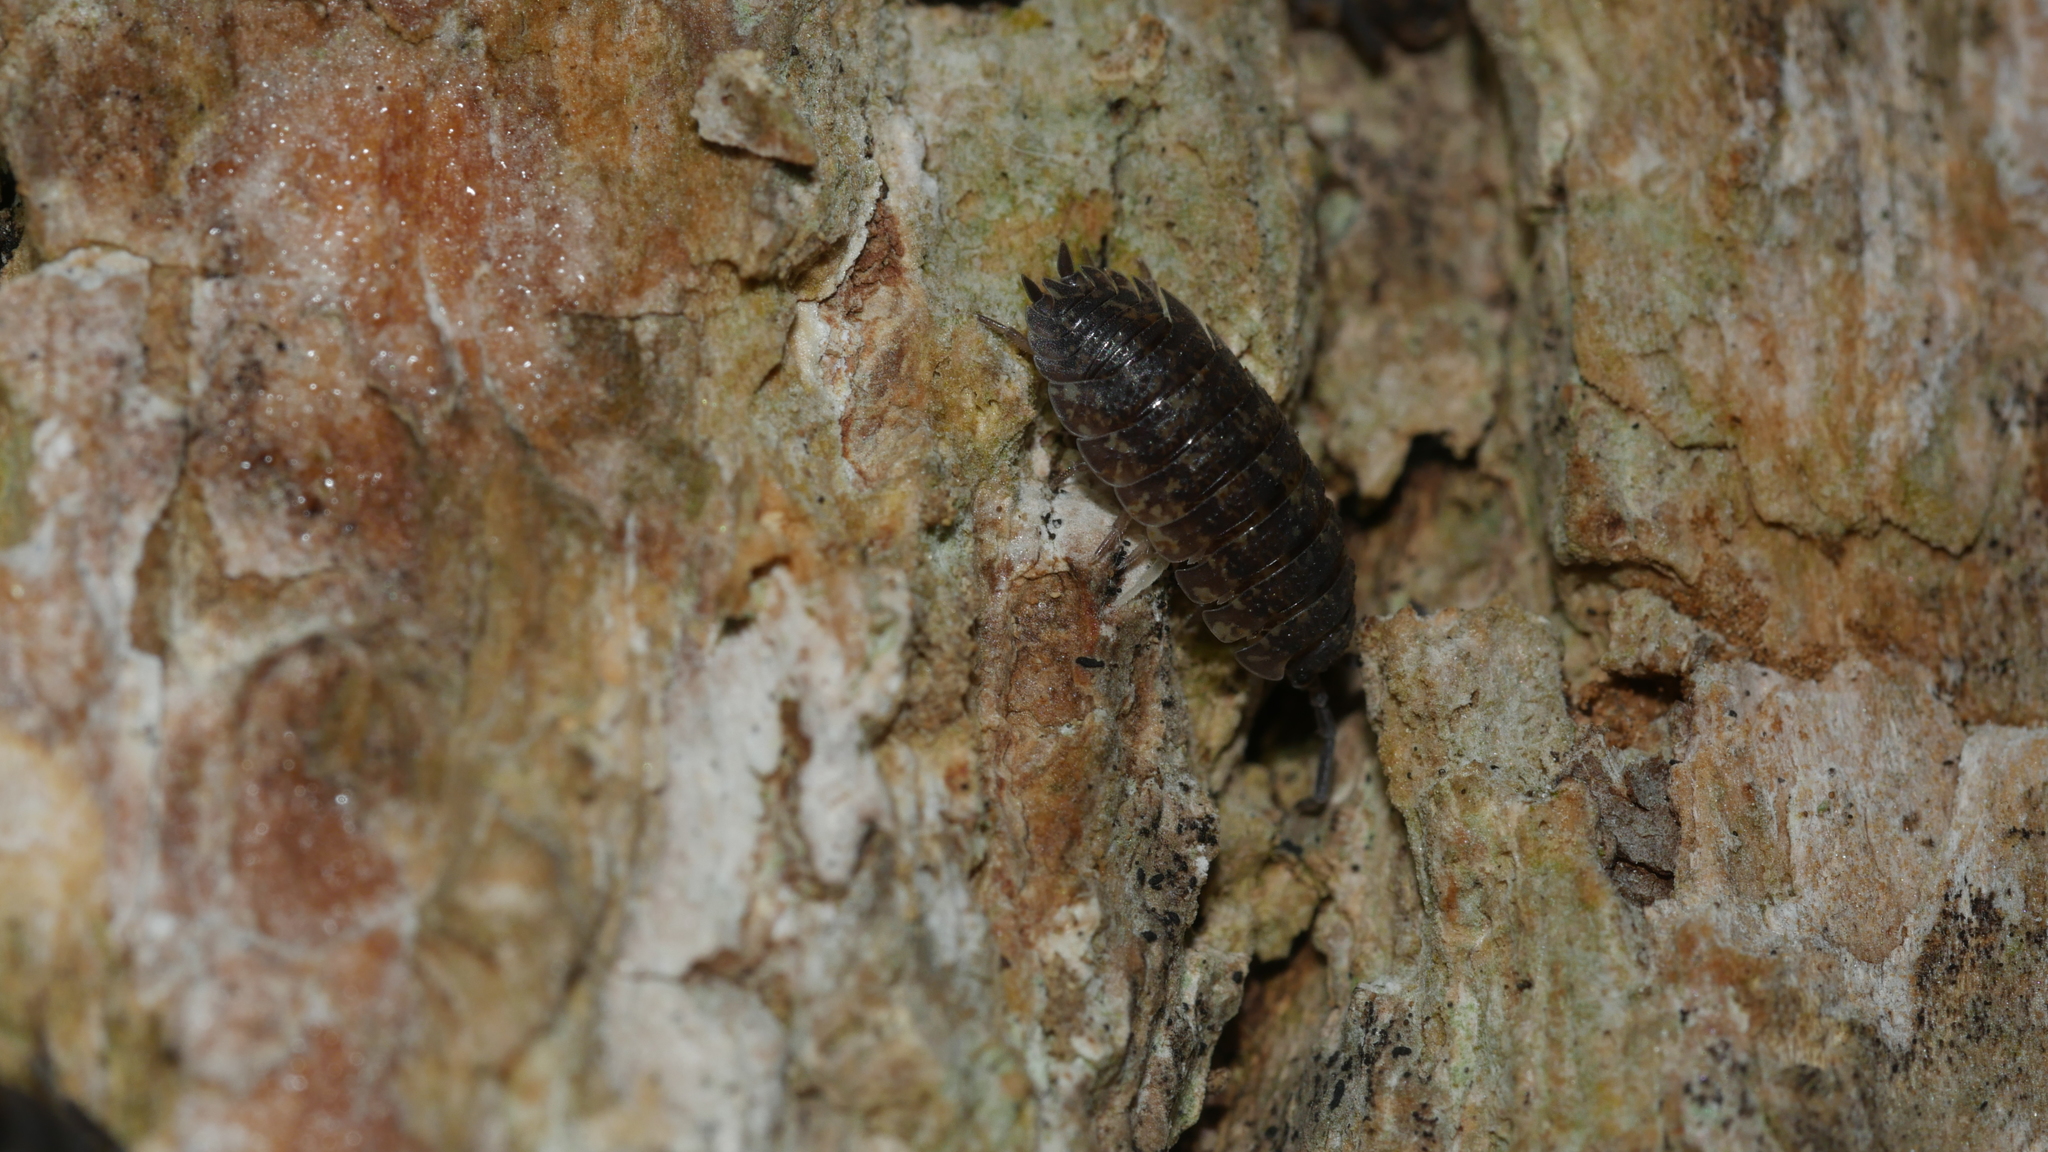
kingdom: Animalia
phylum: Arthropoda
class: Malacostraca
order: Isopoda
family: Porcellionidae
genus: Porcellio
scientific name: Porcellio scaber
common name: Common rough woodlouse
